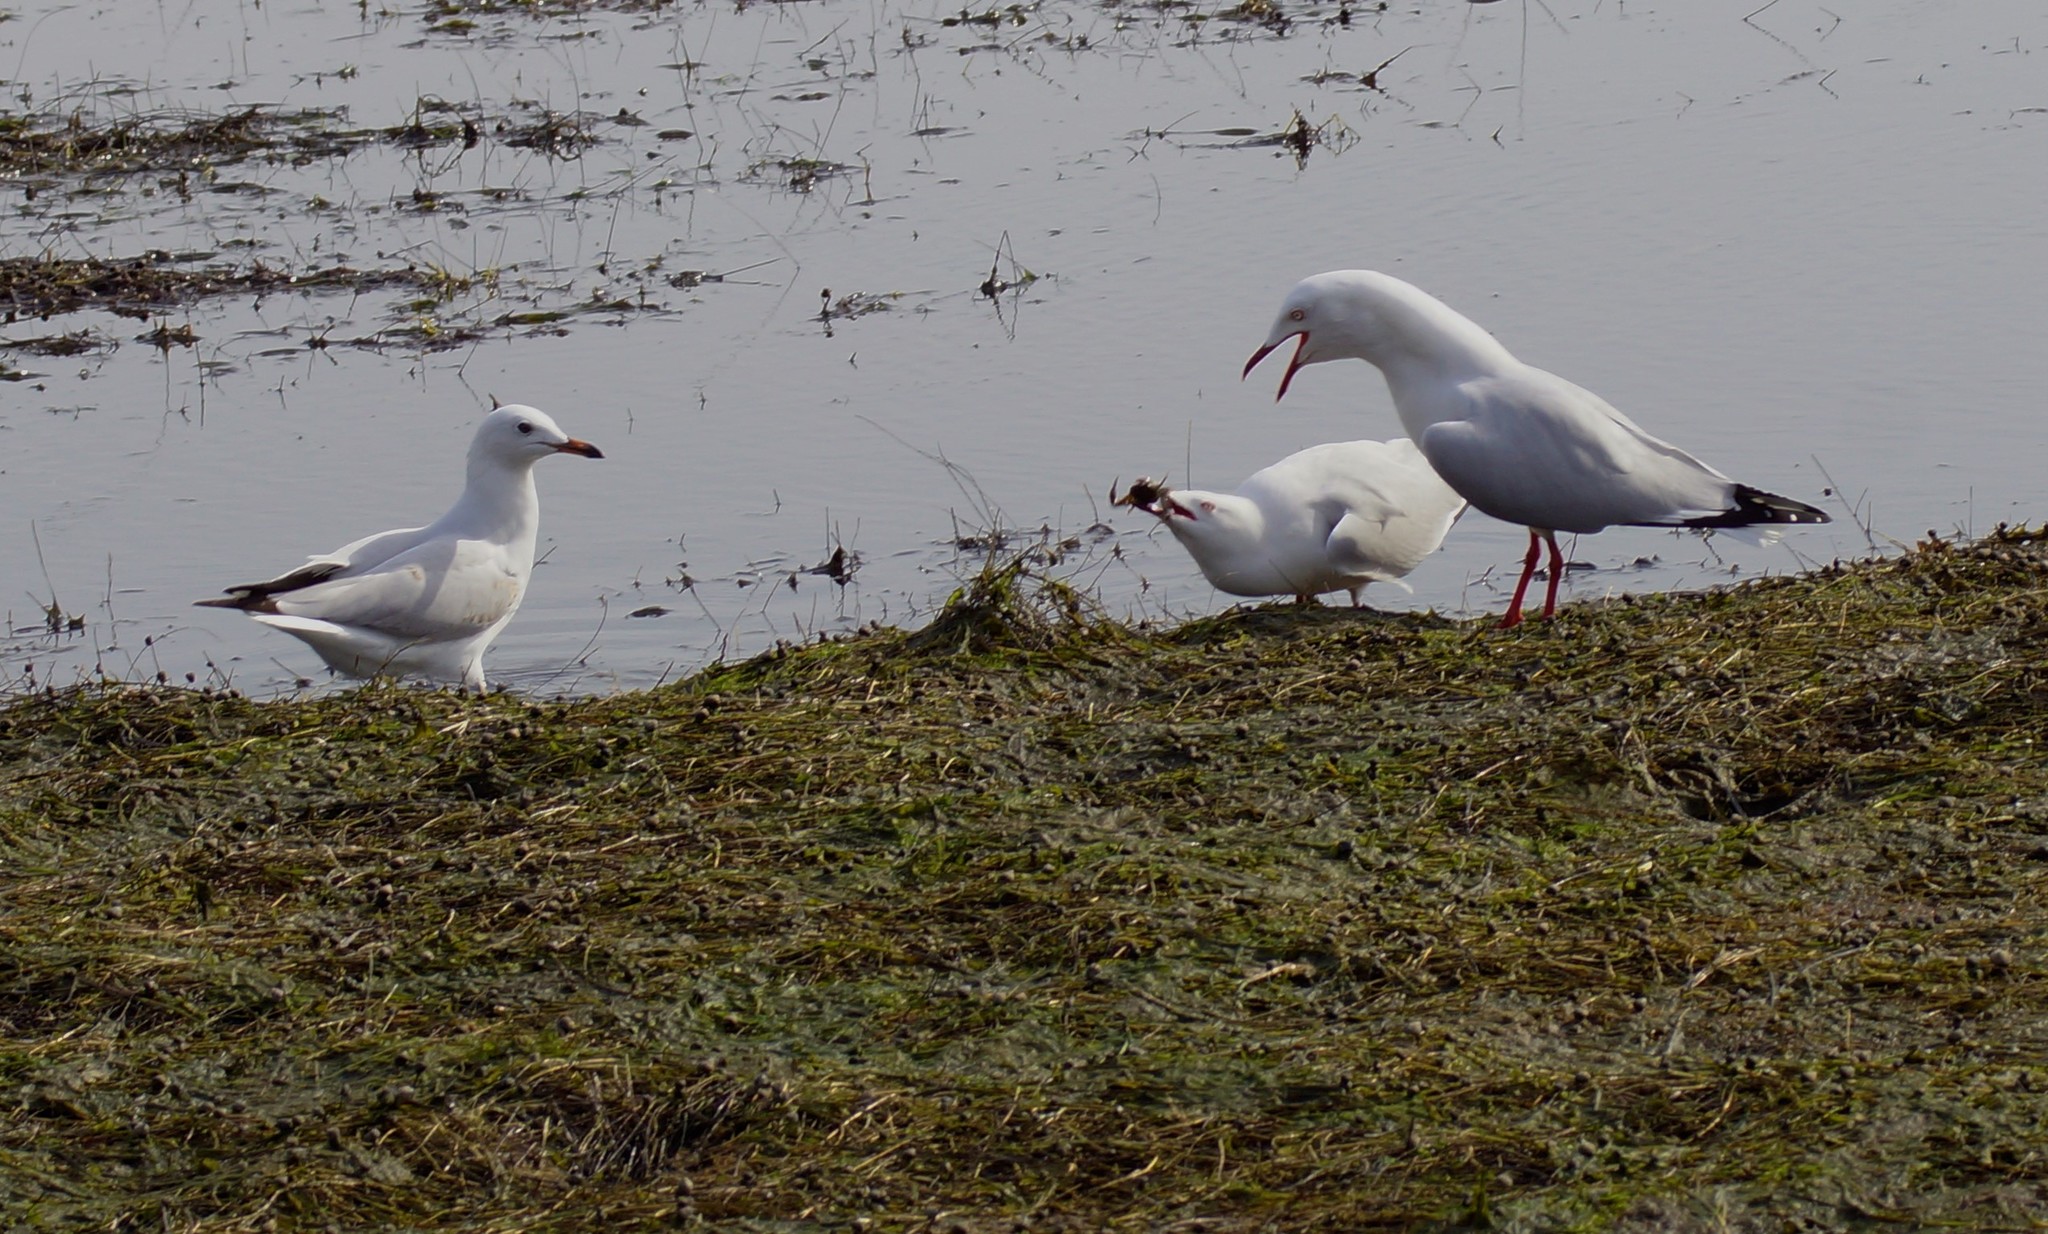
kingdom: Animalia
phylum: Chordata
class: Aves
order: Charadriiformes
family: Laridae
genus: Chroicocephalus
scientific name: Chroicocephalus novaehollandiae
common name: Silver gull
